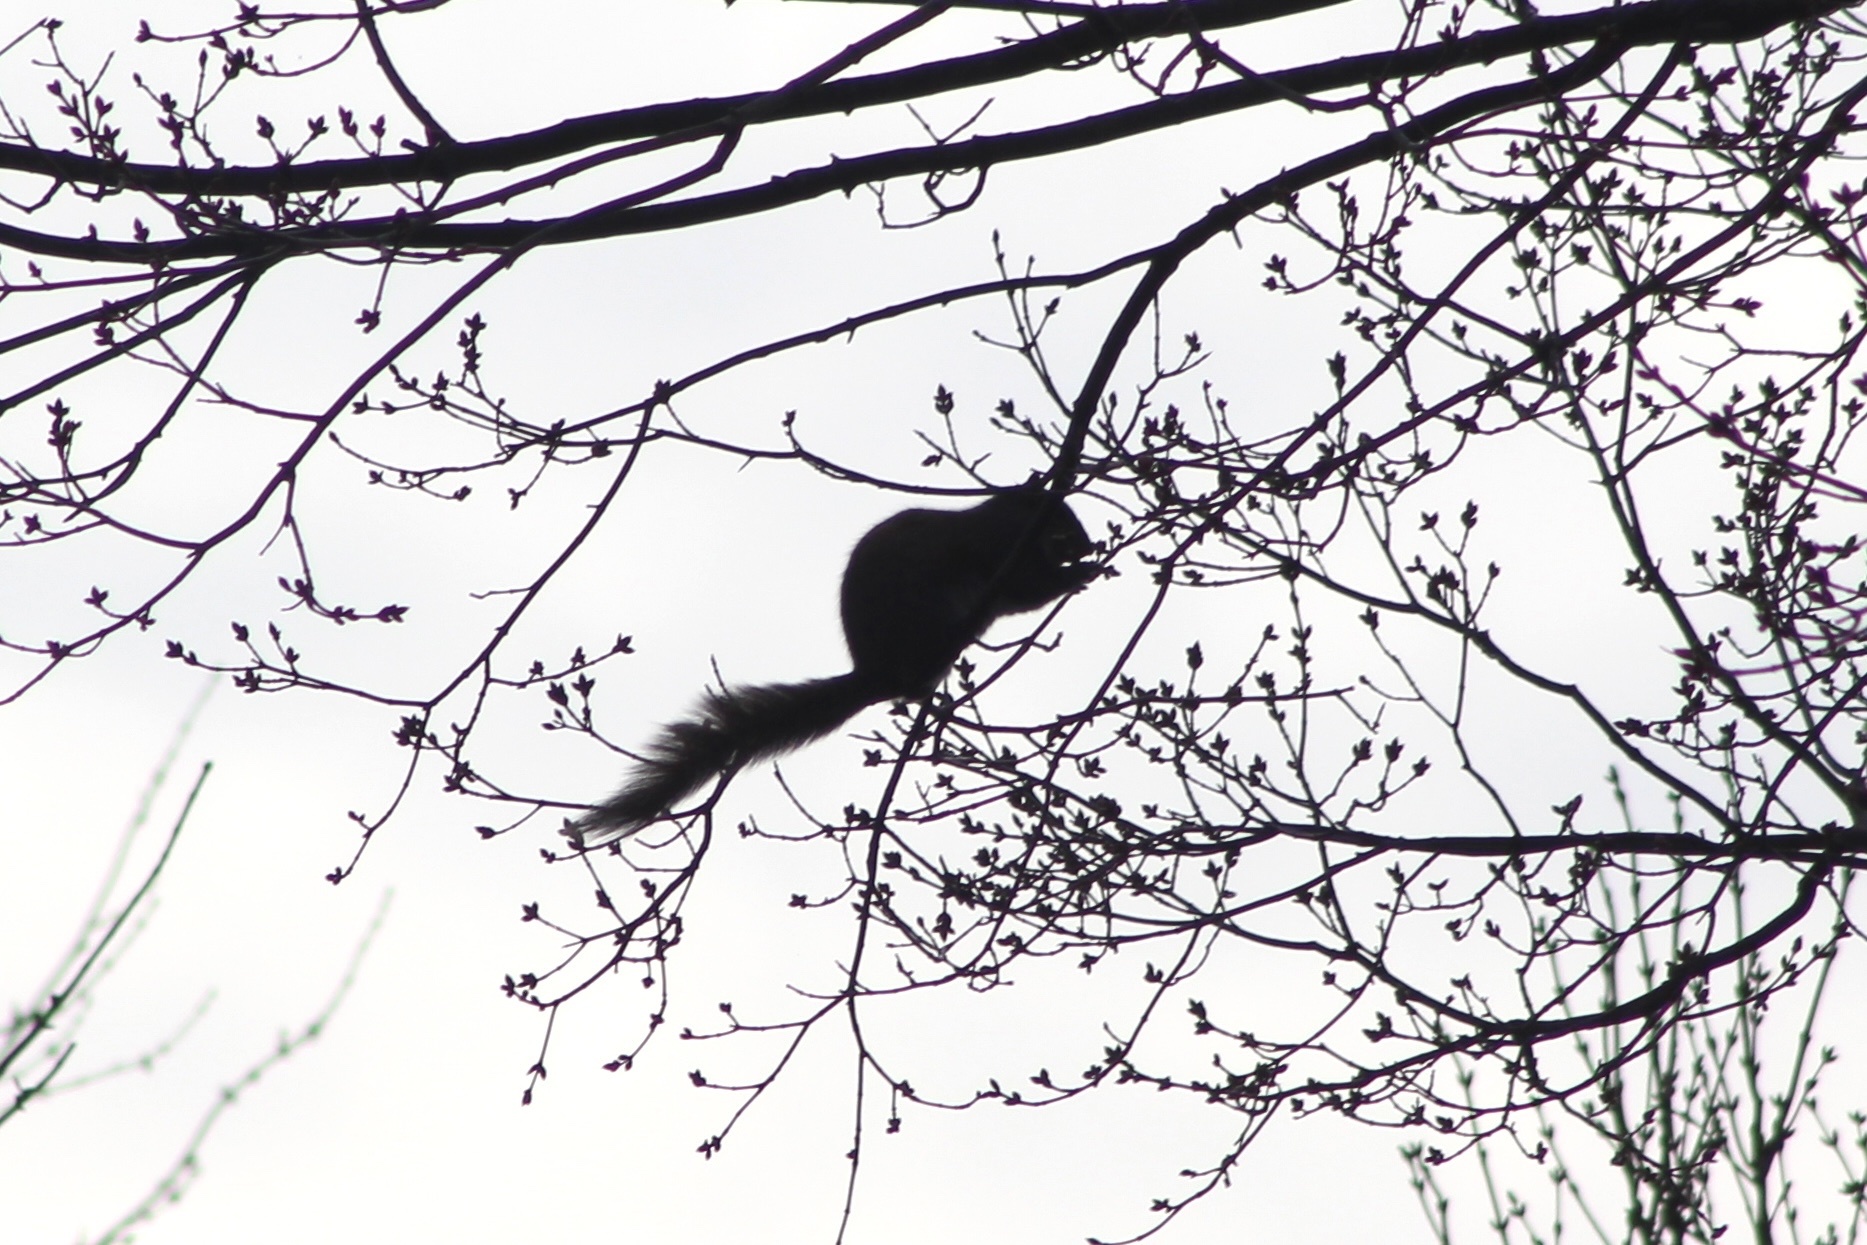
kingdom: Animalia
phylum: Chordata
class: Mammalia
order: Rodentia
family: Sciuridae
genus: Sciurus
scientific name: Sciurus carolinensis
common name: Eastern gray squirrel
